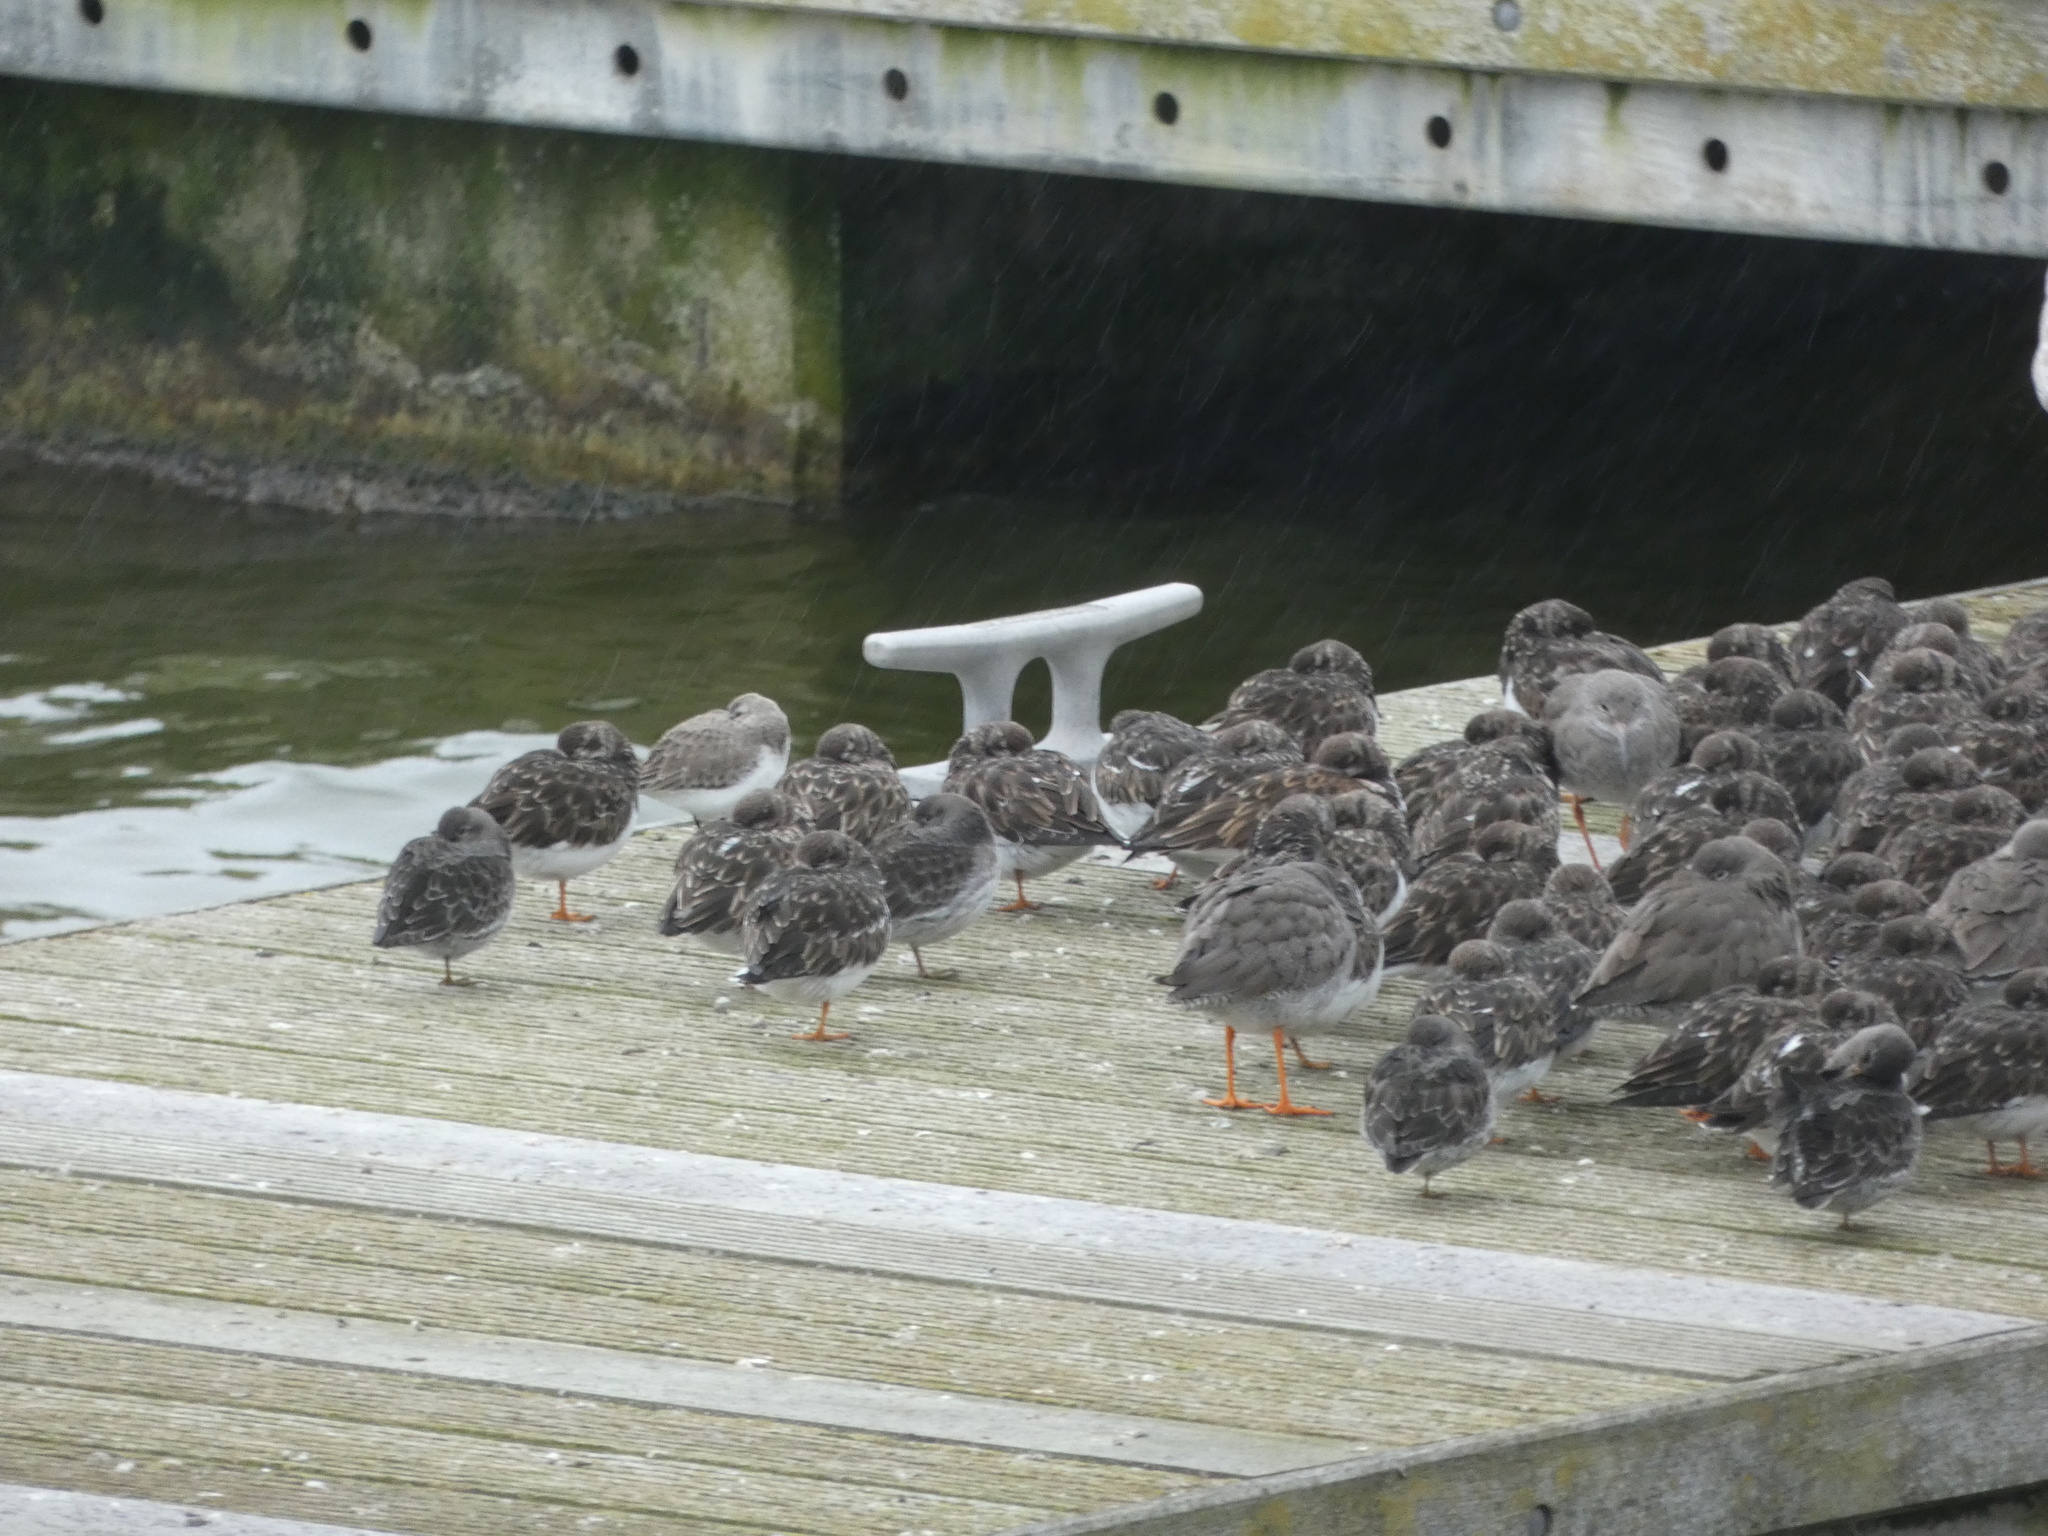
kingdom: Animalia
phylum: Chordata
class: Aves
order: Charadriiformes
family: Scolopacidae
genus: Arenaria
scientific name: Arenaria interpres
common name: Ruddy turnstone
